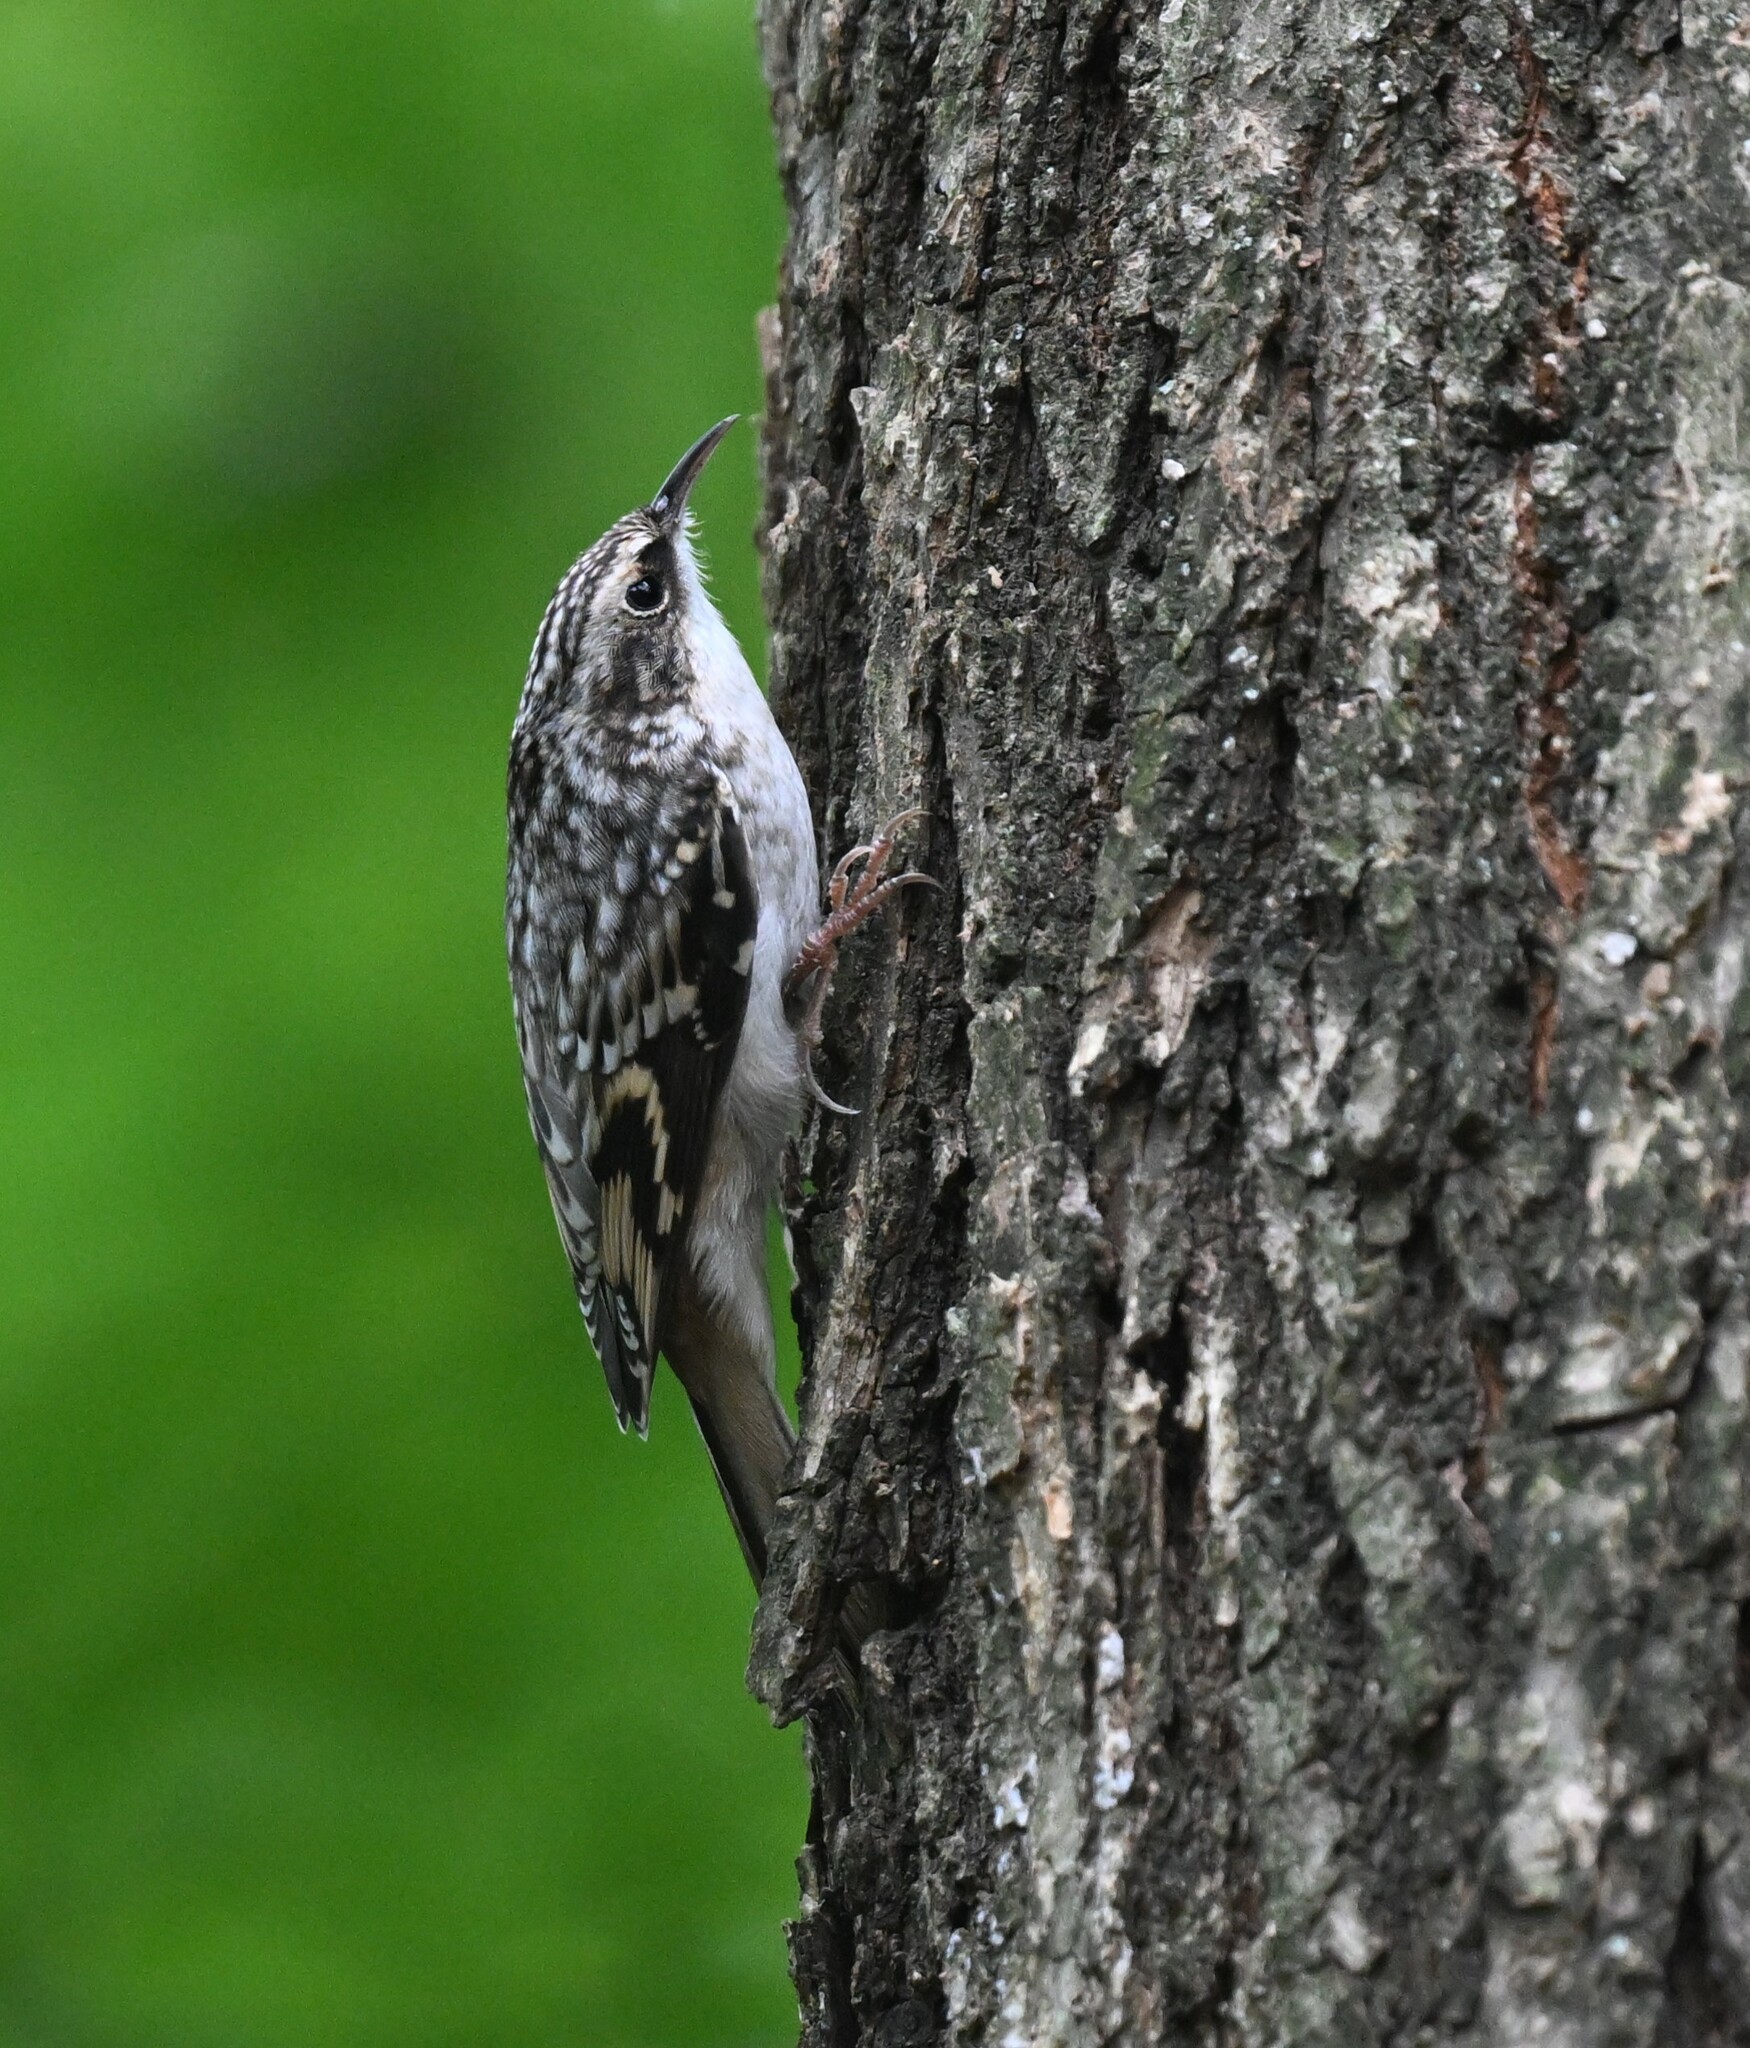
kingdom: Animalia
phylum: Chordata
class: Aves
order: Passeriformes
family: Certhiidae
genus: Certhia
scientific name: Certhia americana
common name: Brown creeper
